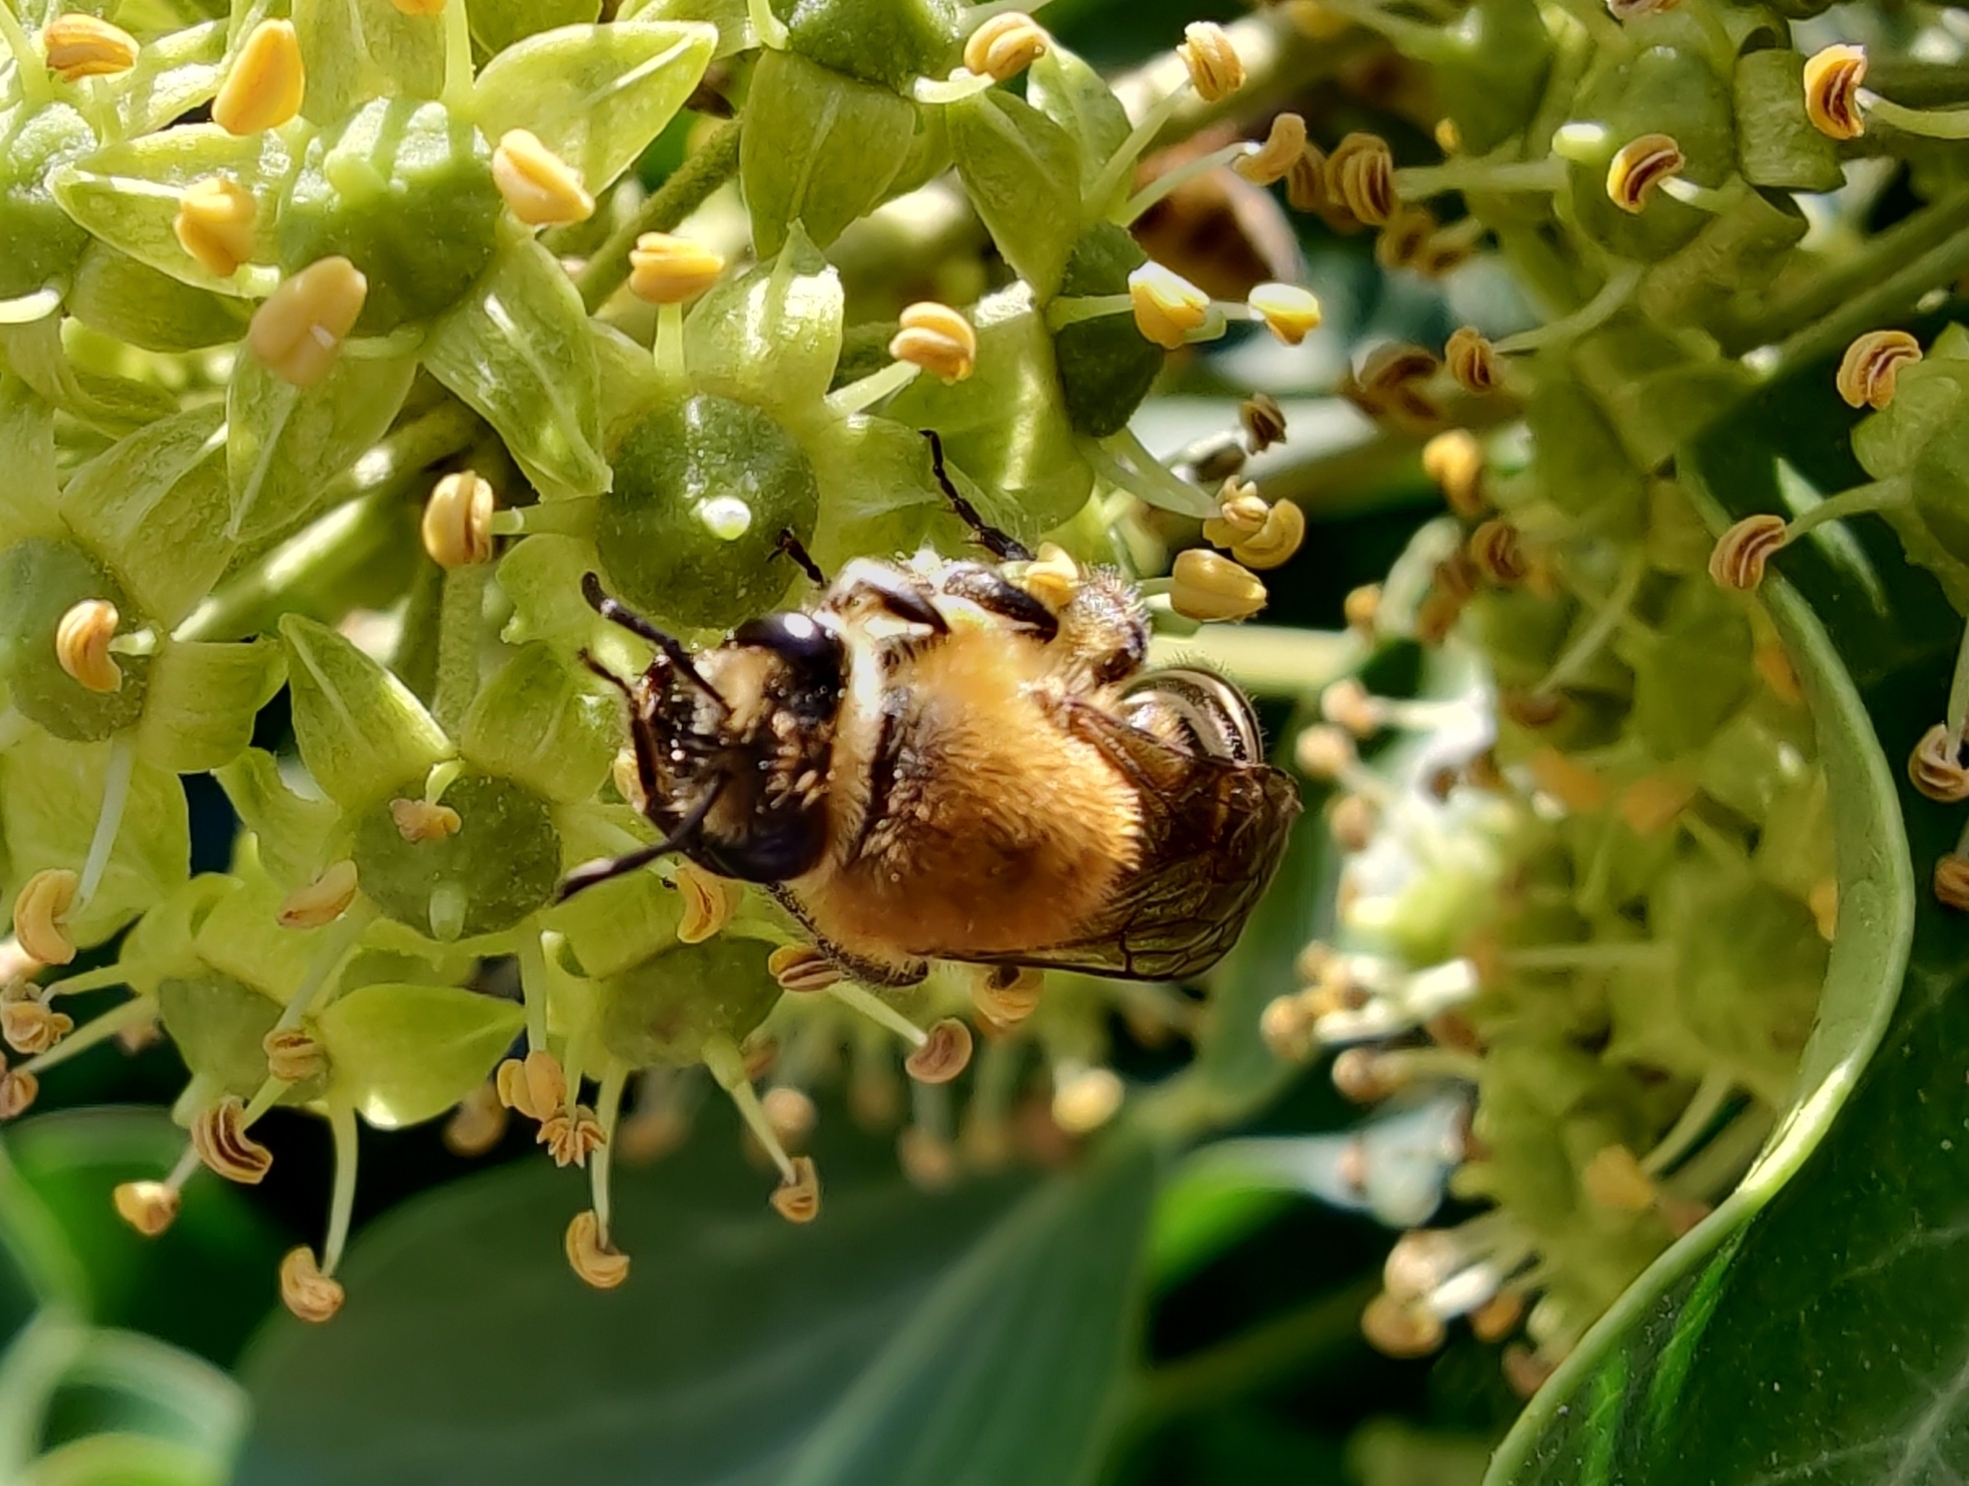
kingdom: Animalia
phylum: Arthropoda
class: Insecta
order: Hymenoptera
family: Colletidae
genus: Colletes
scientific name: Colletes hederae
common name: Ivy bee
